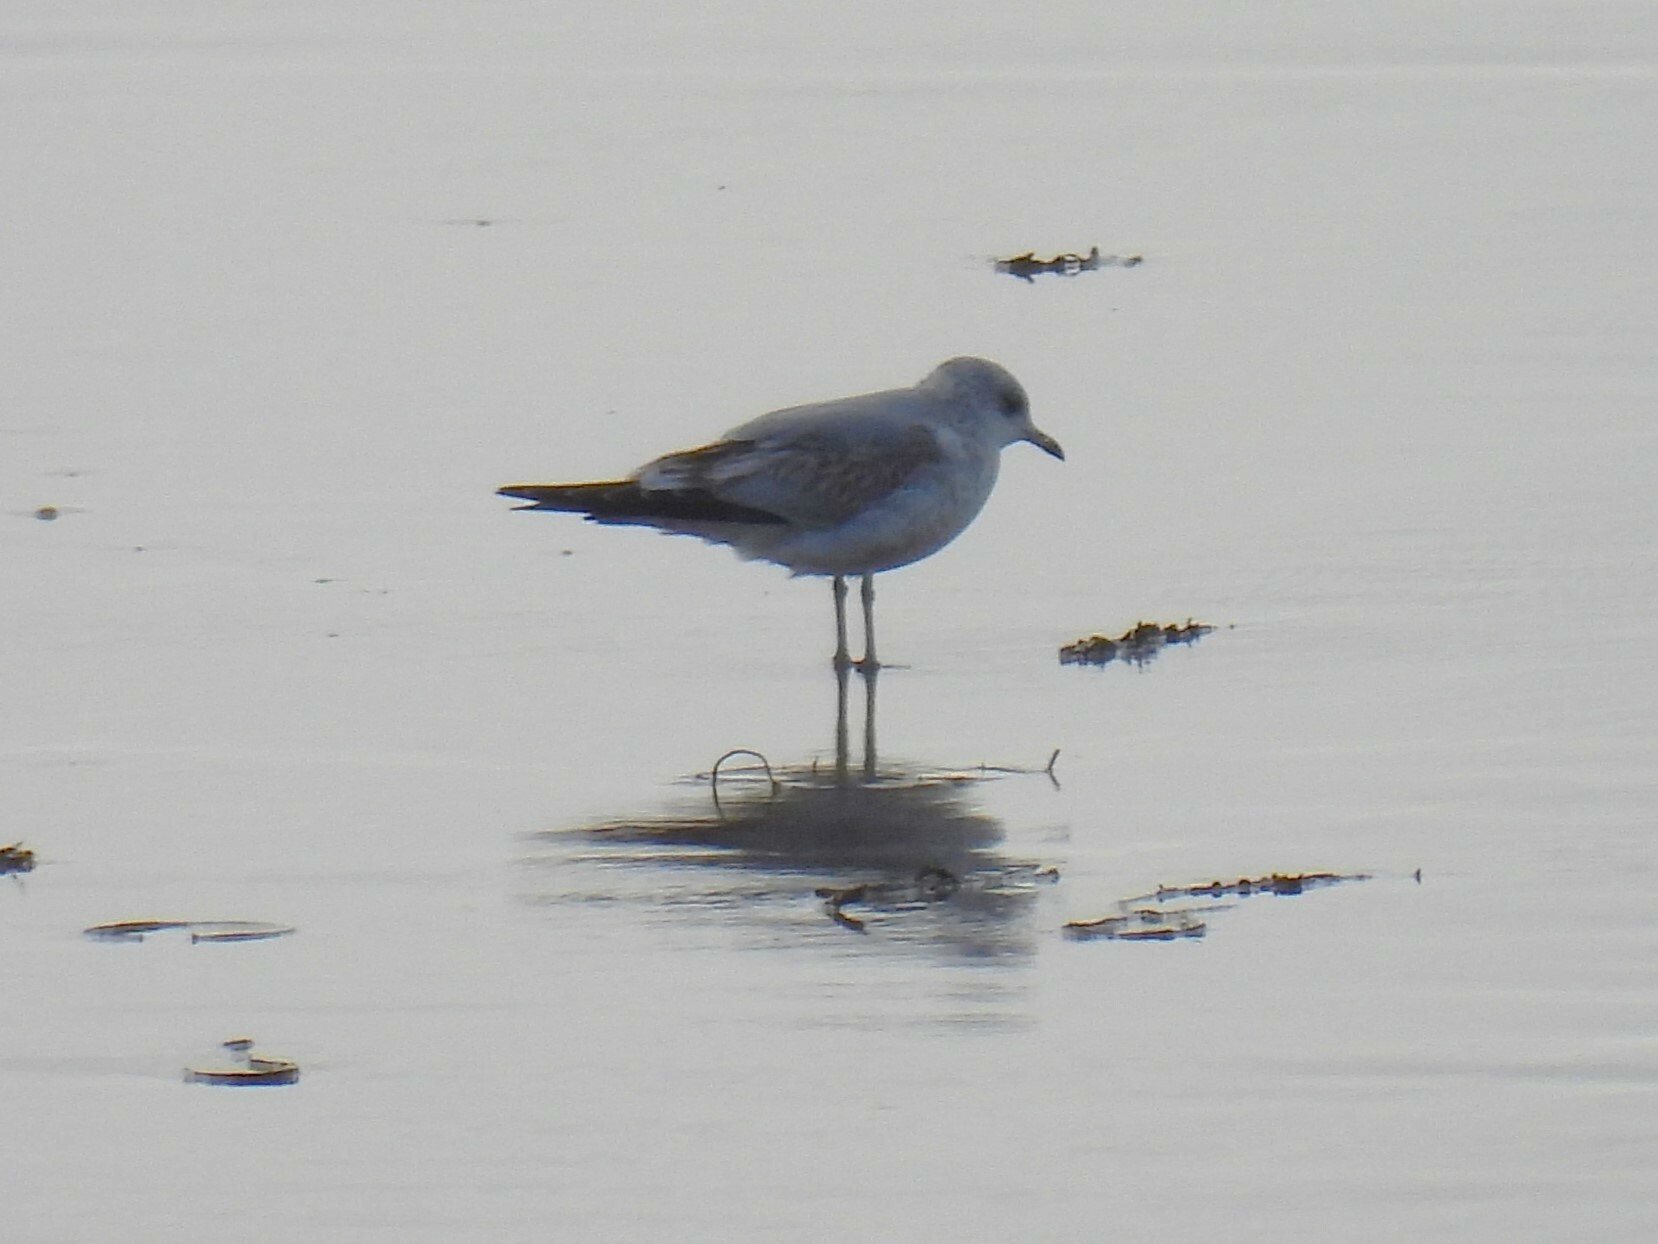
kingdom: Animalia
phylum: Chordata
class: Aves
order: Charadriiformes
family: Laridae
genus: Larus
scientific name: Larus canus
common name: Mew gull
